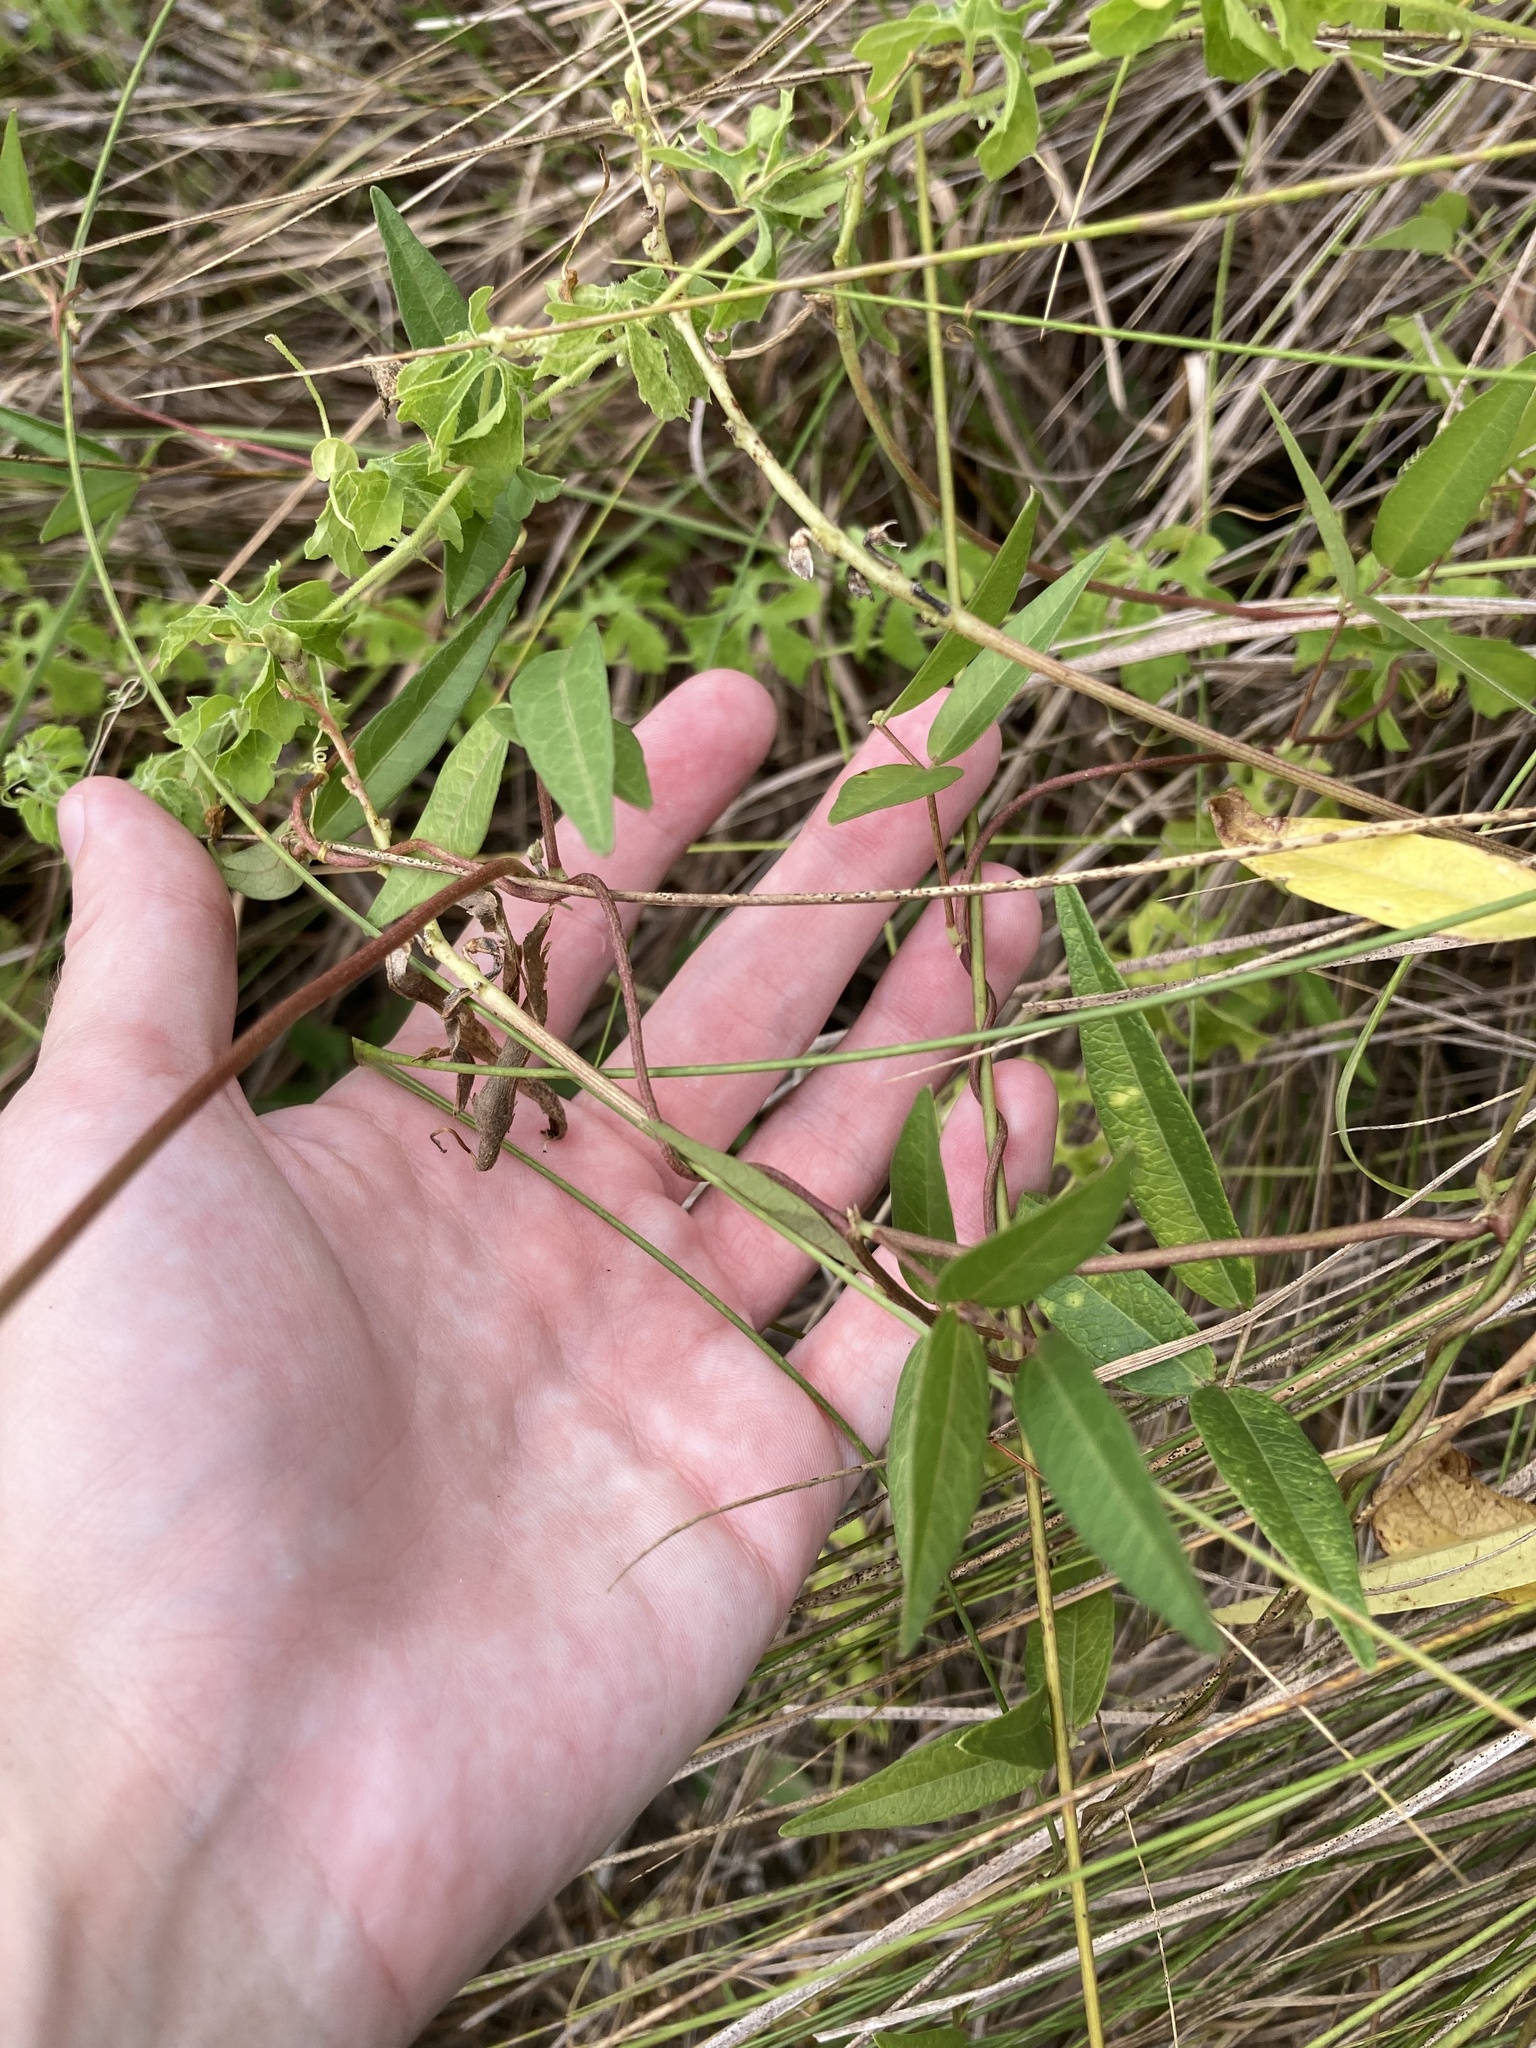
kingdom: Plantae
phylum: Tracheophyta
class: Magnoliopsida
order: Fabales
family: Fabaceae
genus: Vigna
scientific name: Vigna luteola
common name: Hairypod cowpea
